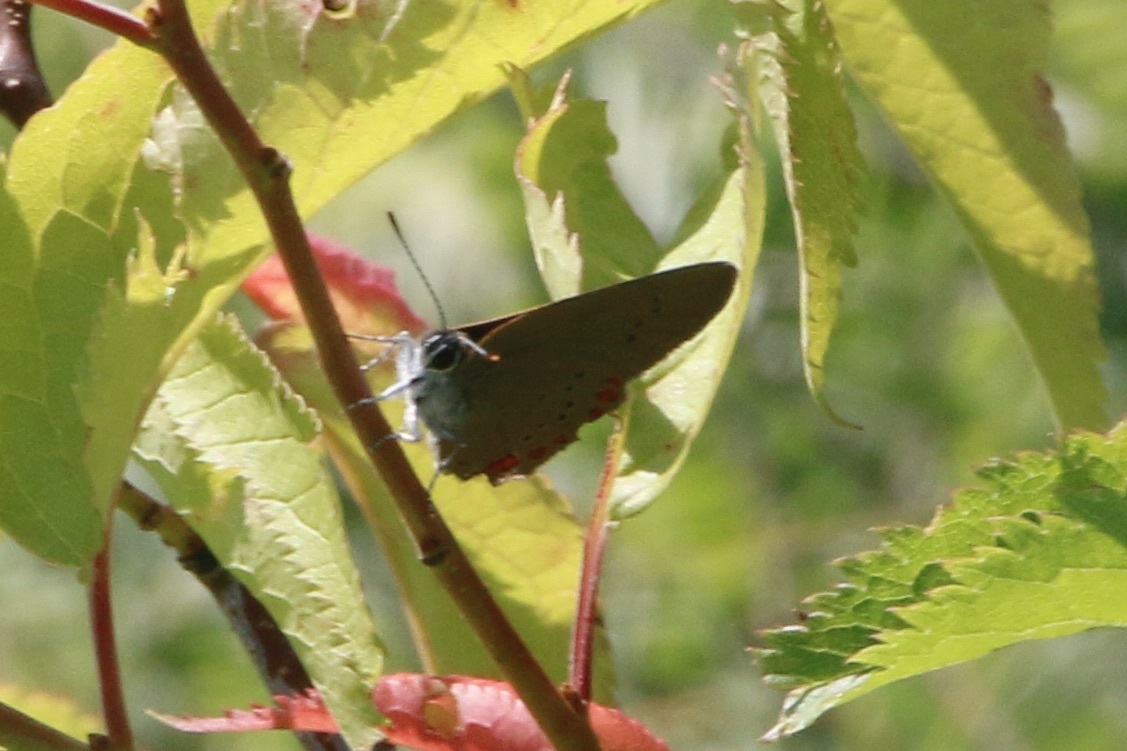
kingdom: Animalia
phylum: Arthropoda
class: Insecta
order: Lepidoptera
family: Lycaenidae
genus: Harkenclenus
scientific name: Harkenclenus titus
